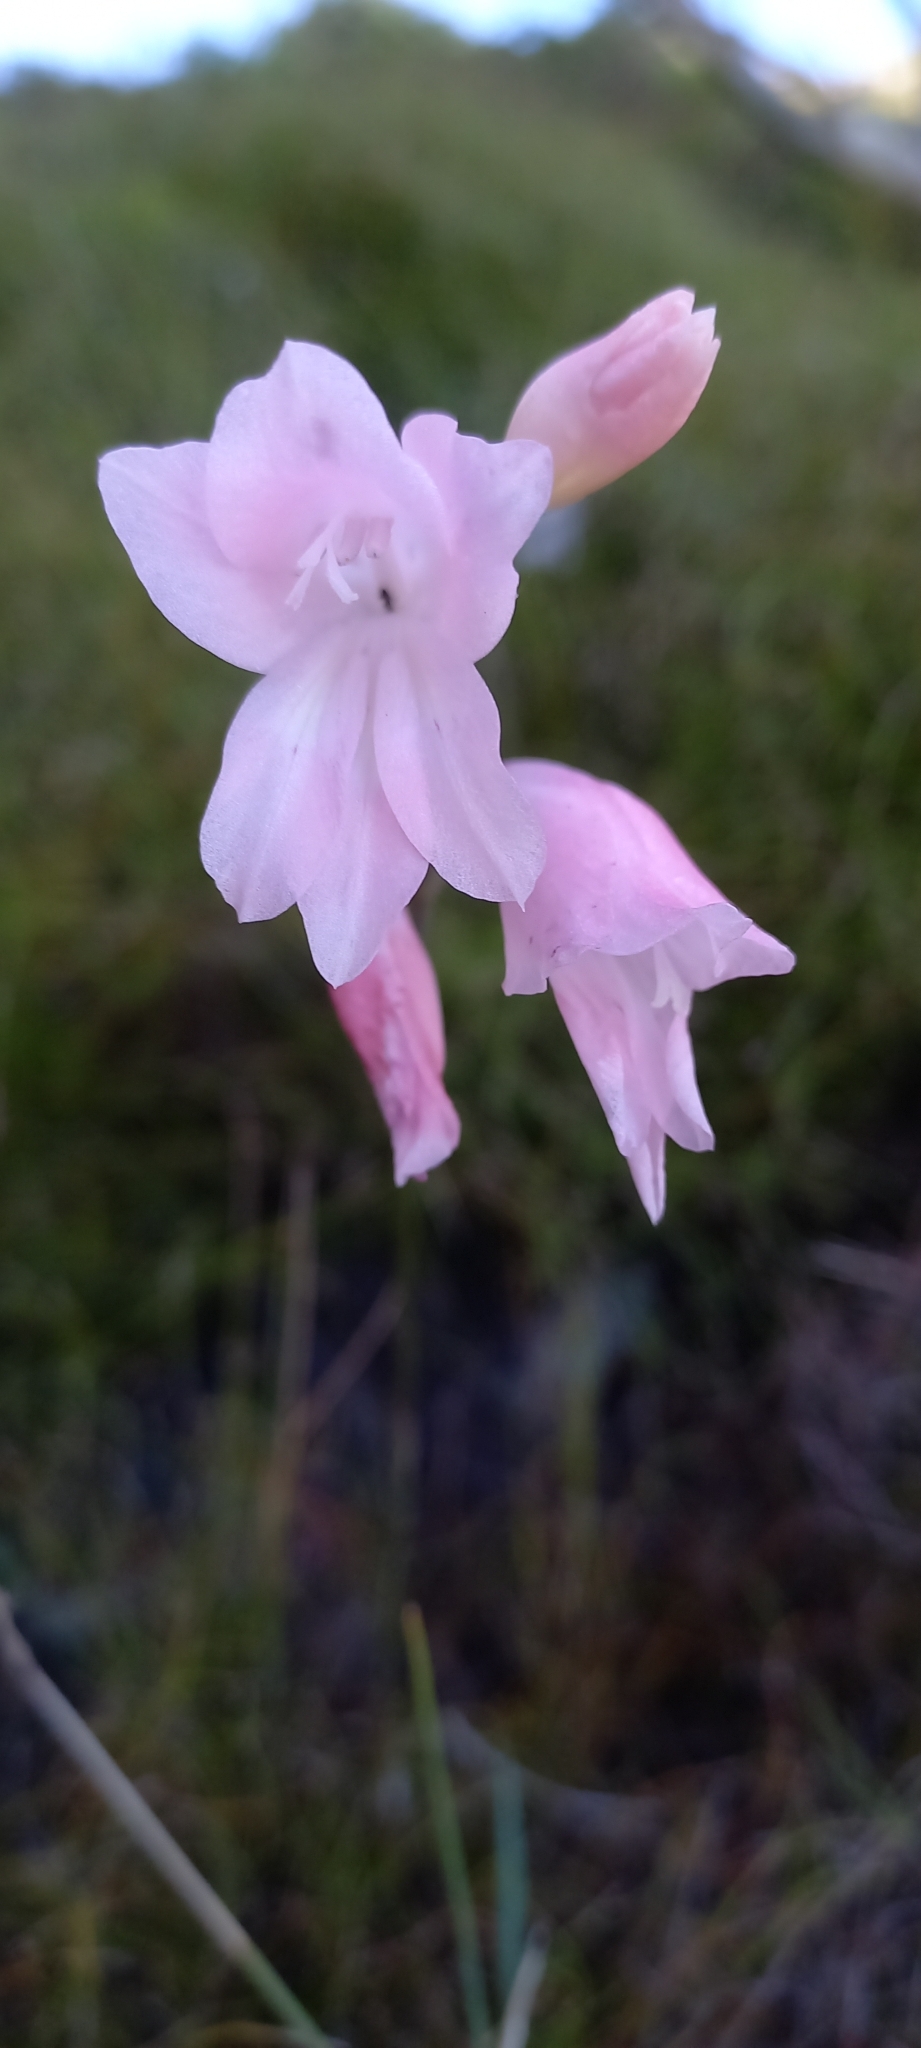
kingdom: Plantae
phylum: Tracheophyta
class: Liliopsida
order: Asparagales
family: Iridaceae
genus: Gladiolus
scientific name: Gladiolus brevifolius
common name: March pypie
